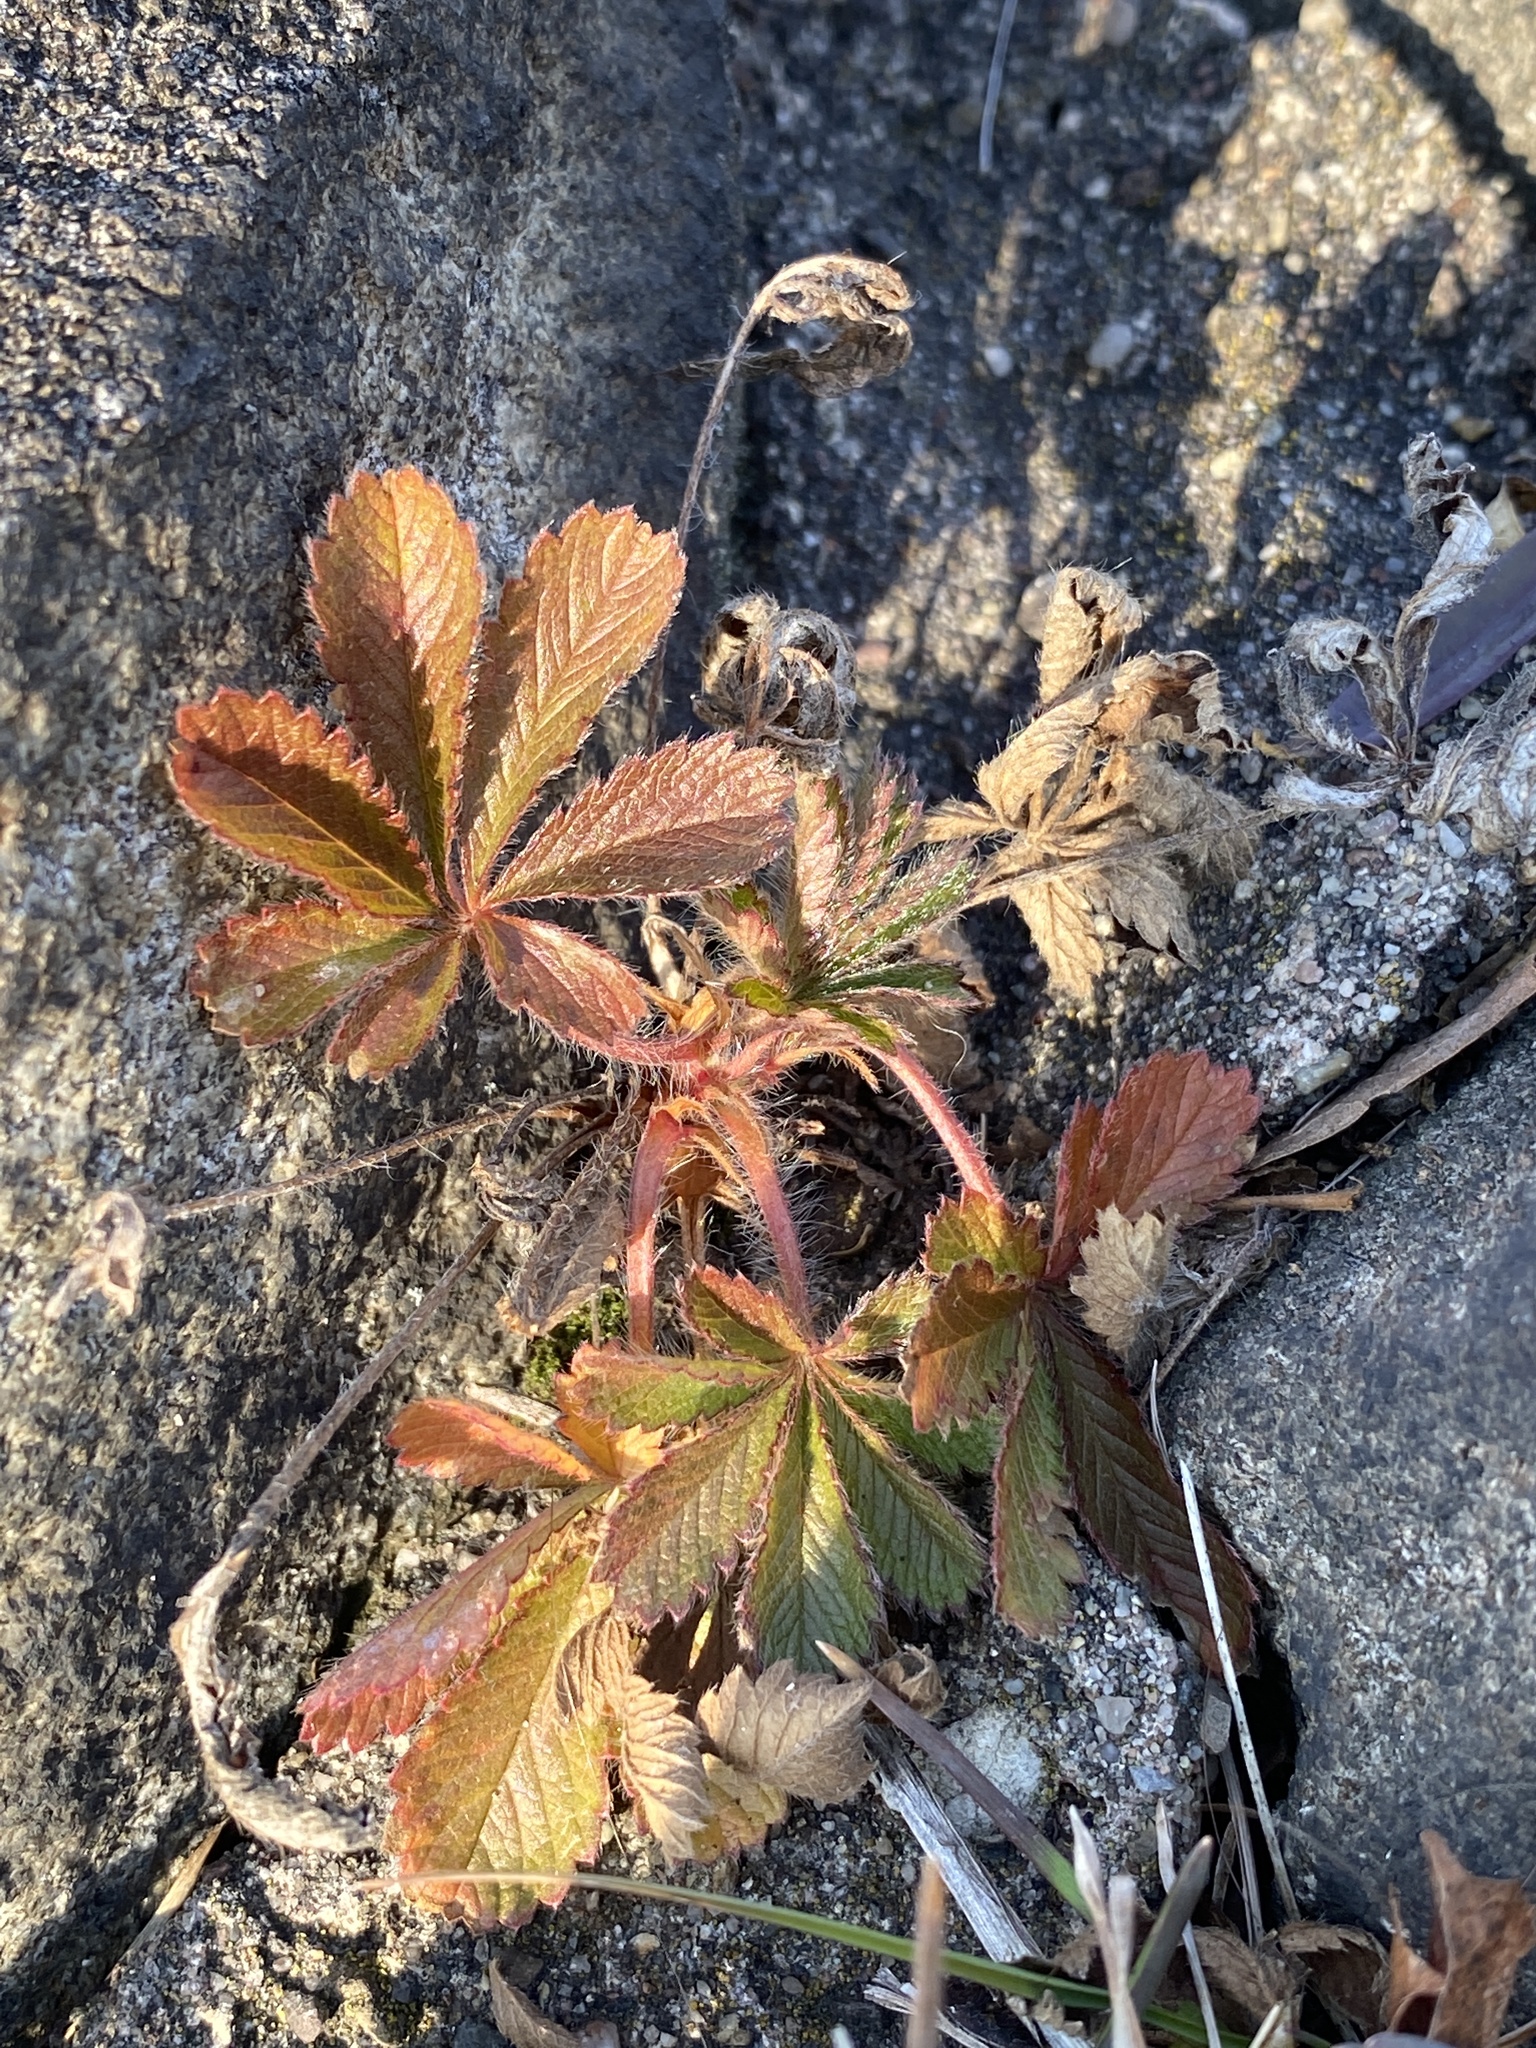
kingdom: Plantae
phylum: Tracheophyta
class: Magnoliopsida
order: Rosales
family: Rosaceae
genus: Potentilla
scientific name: Potentilla recta
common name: Sulphur cinquefoil
